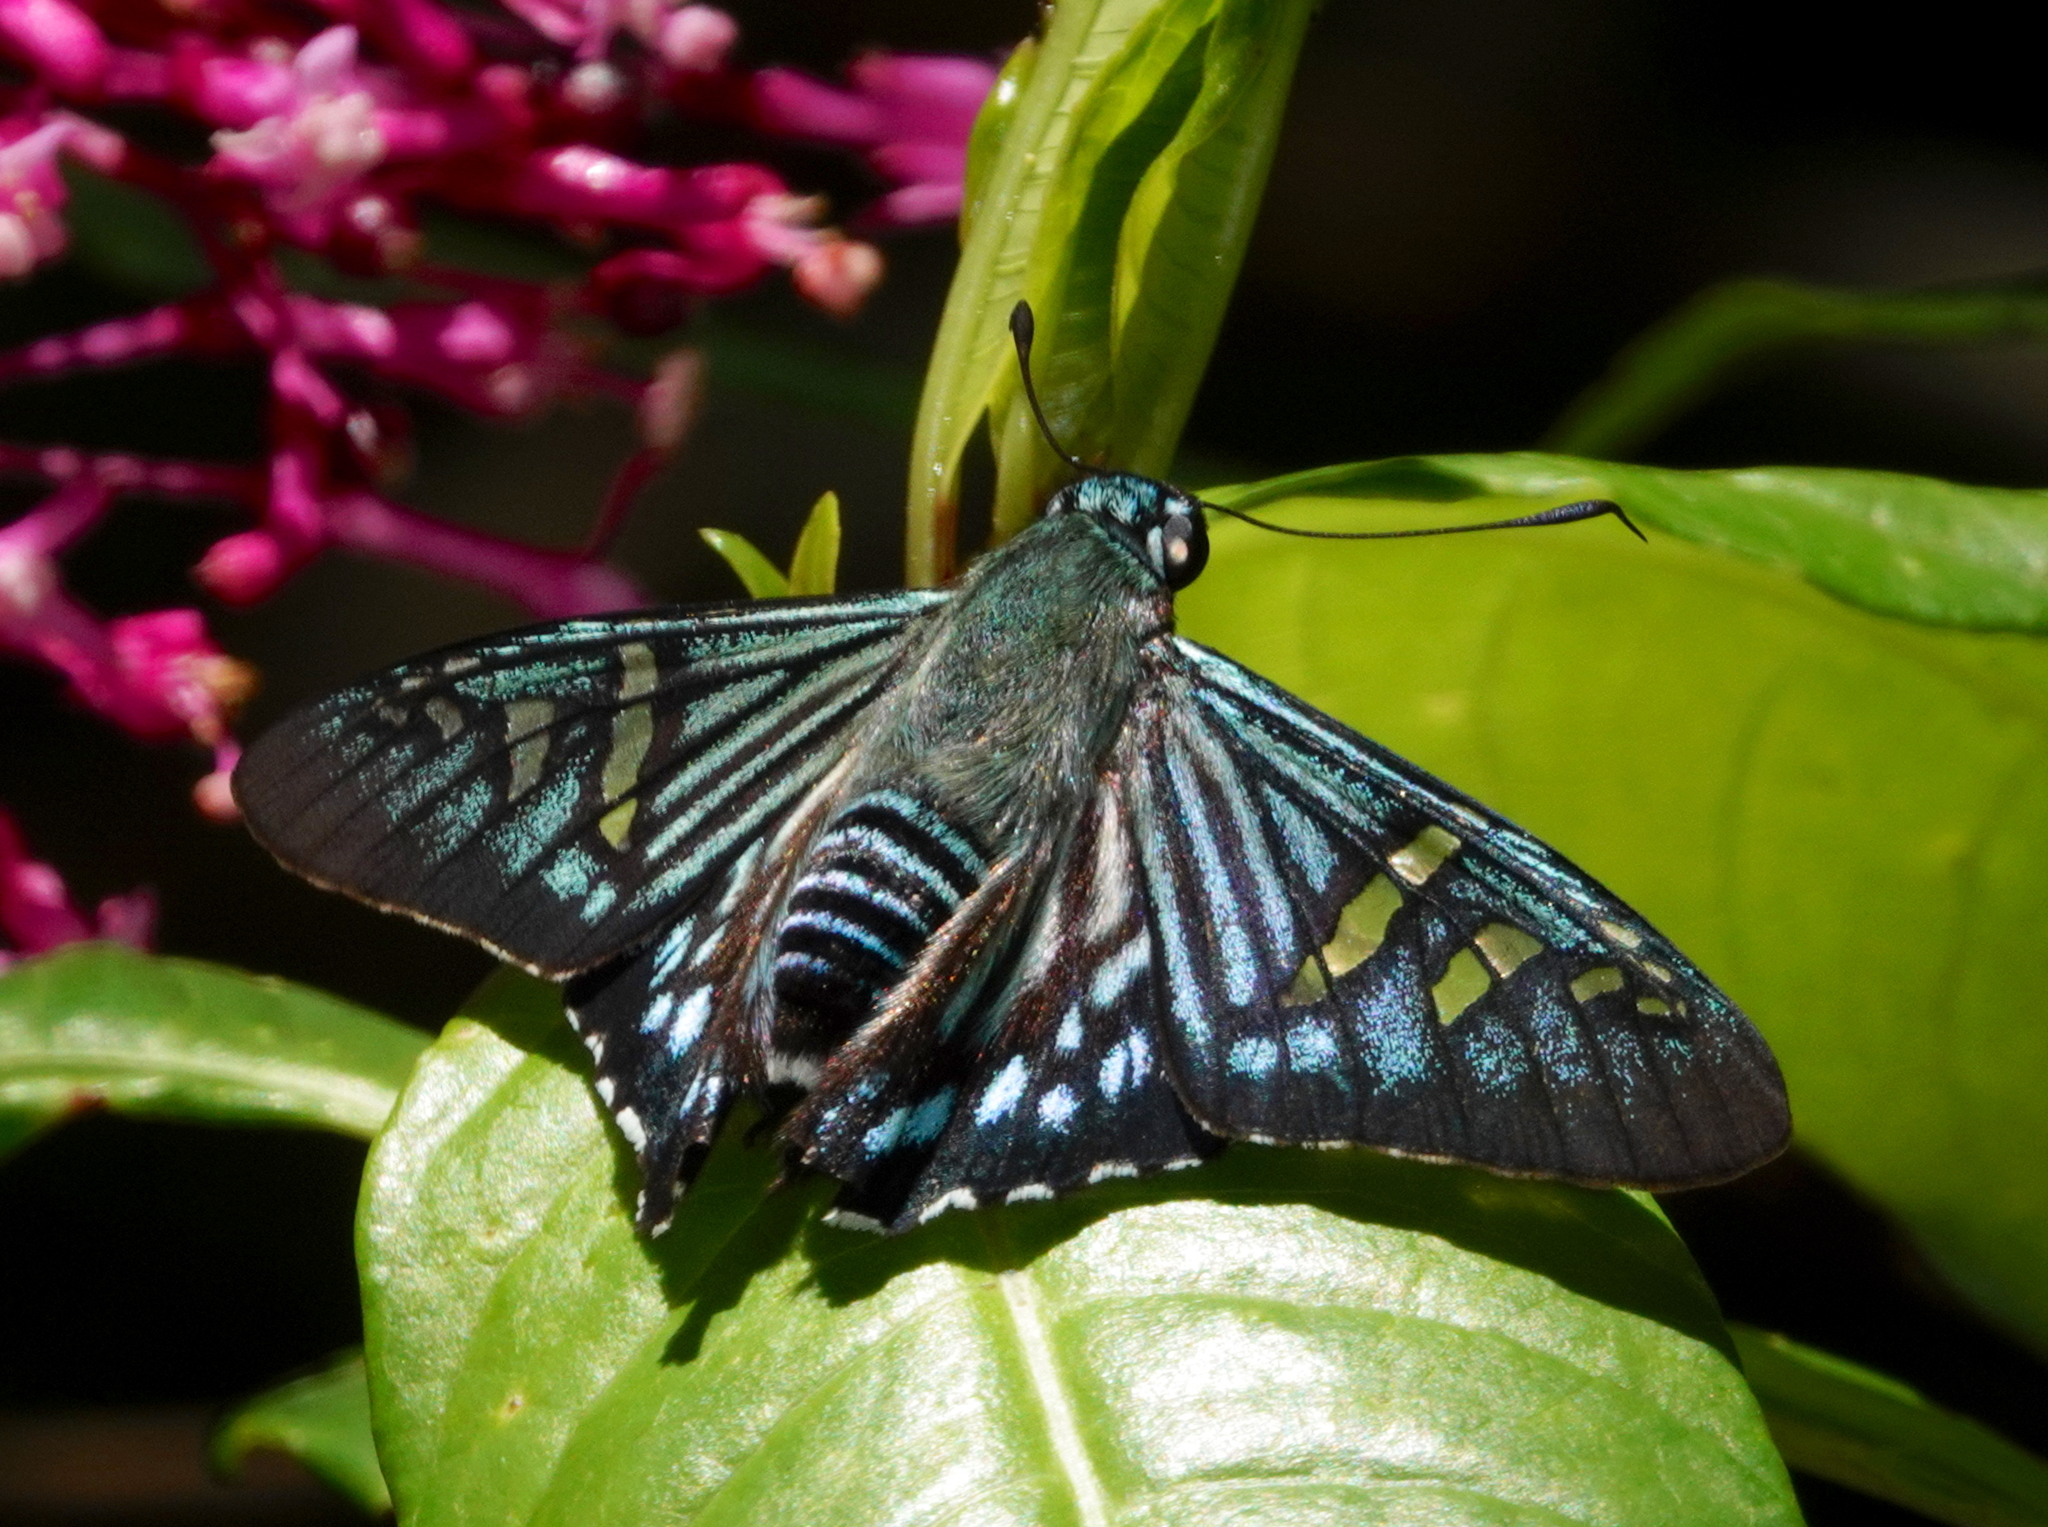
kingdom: Animalia
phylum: Arthropoda
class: Insecta
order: Lepidoptera
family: Hesperiidae
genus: Phocides
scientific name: Phocides urania
